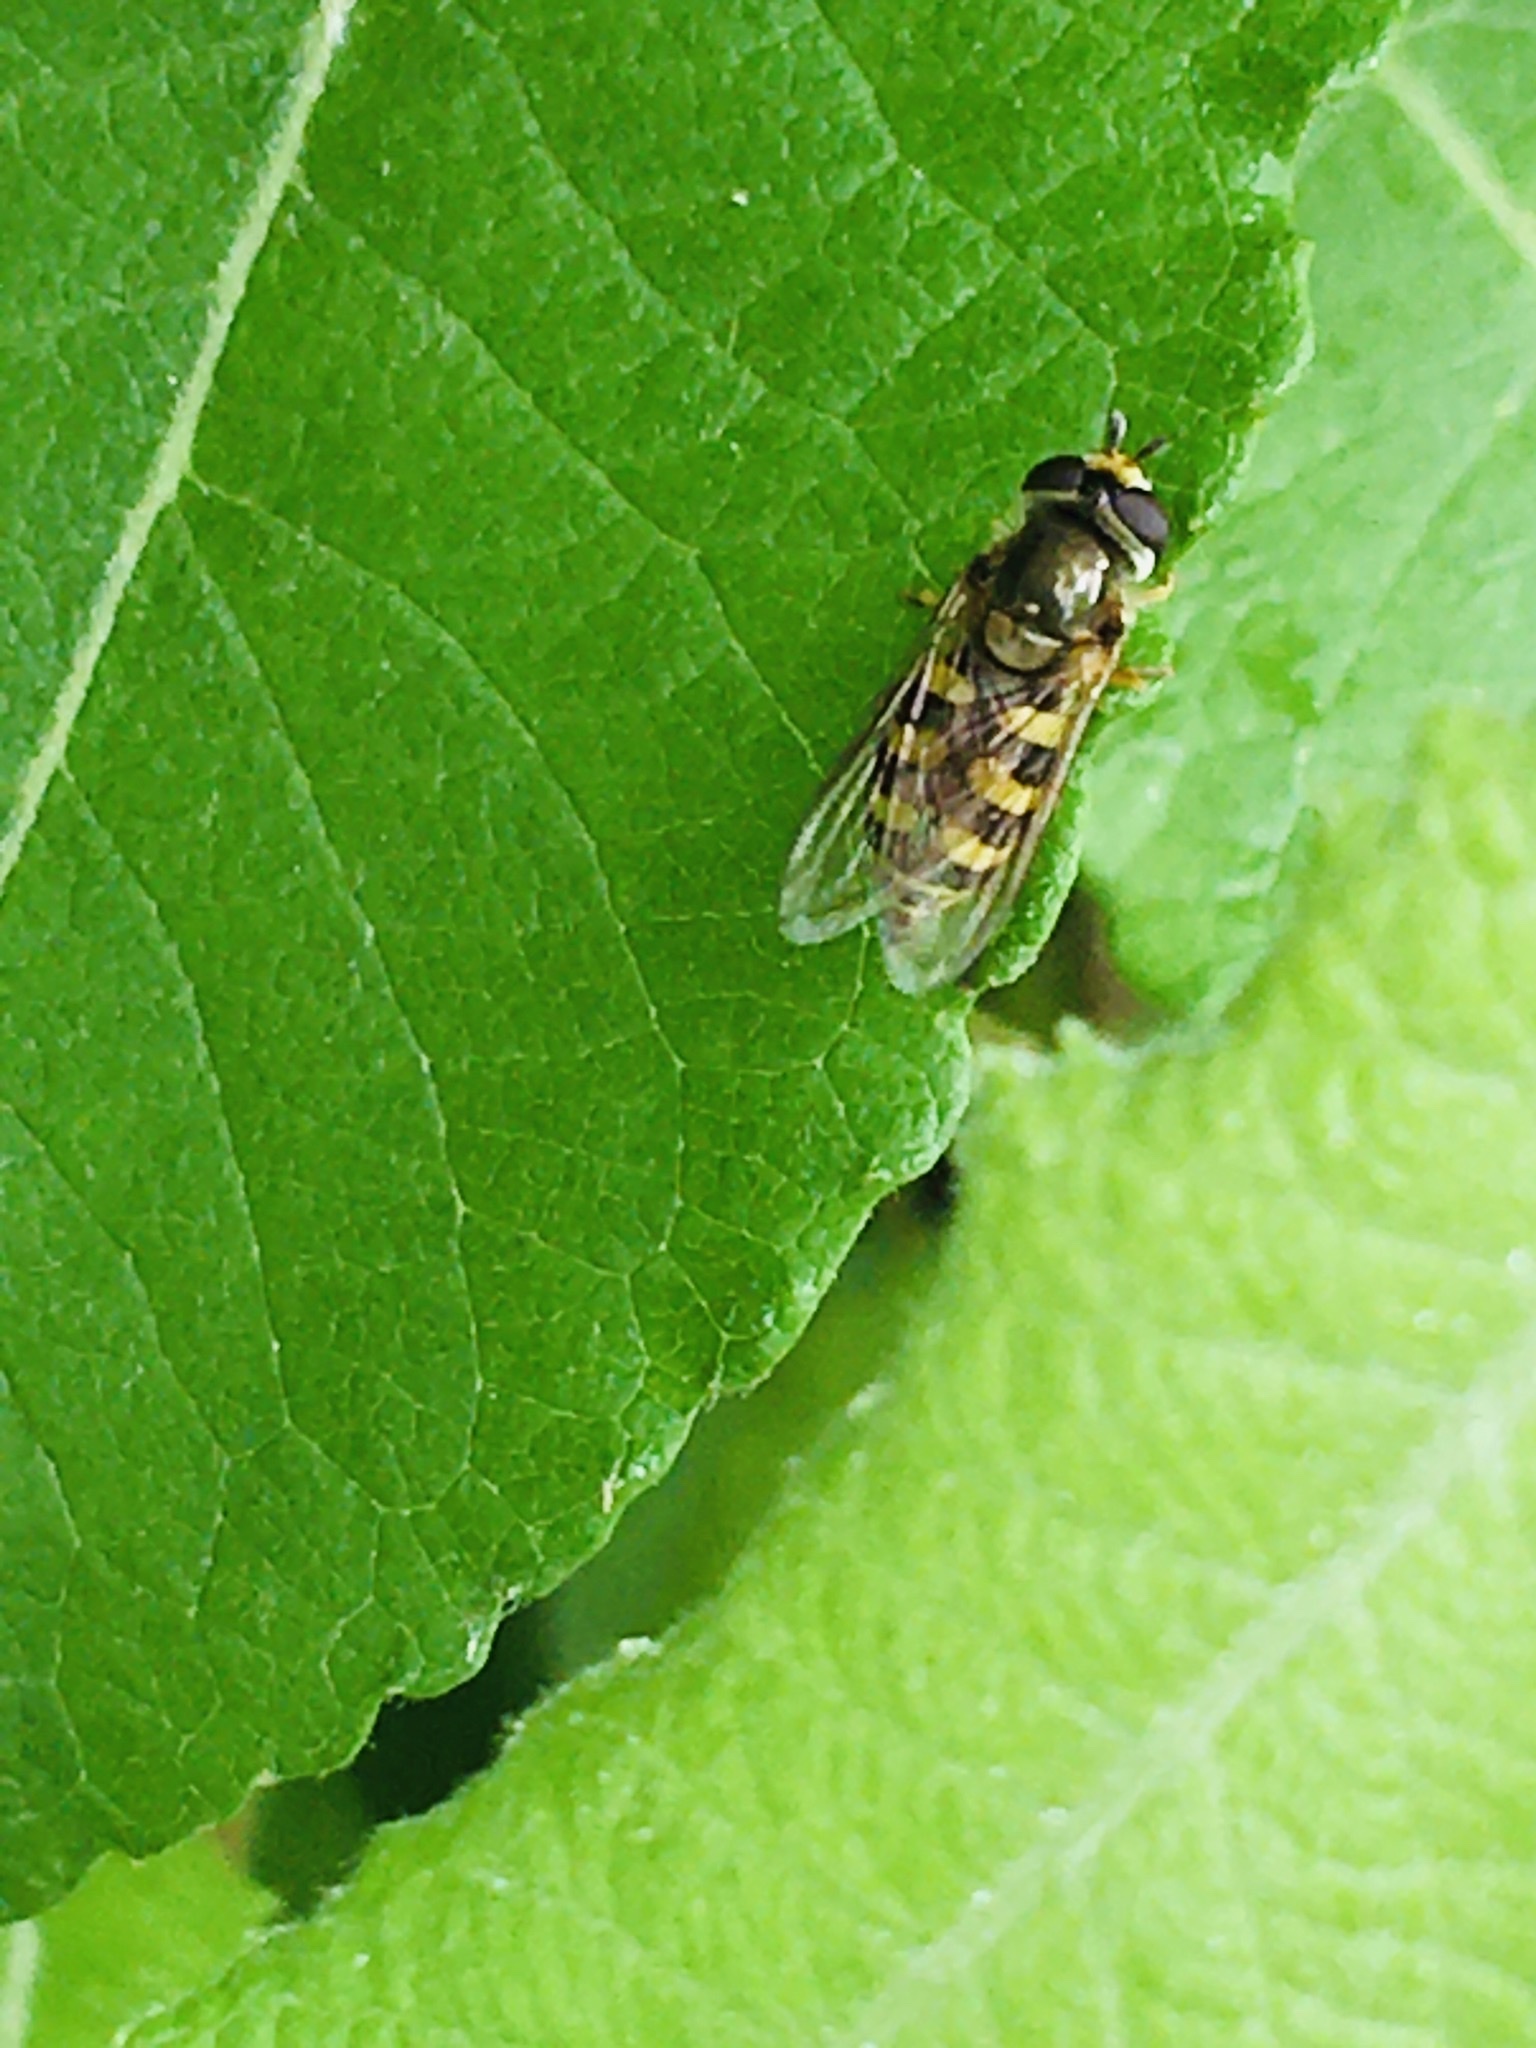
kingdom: Animalia
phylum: Arthropoda
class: Insecta
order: Diptera
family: Syrphidae
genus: Eupeodes
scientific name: Eupeodes corollae
